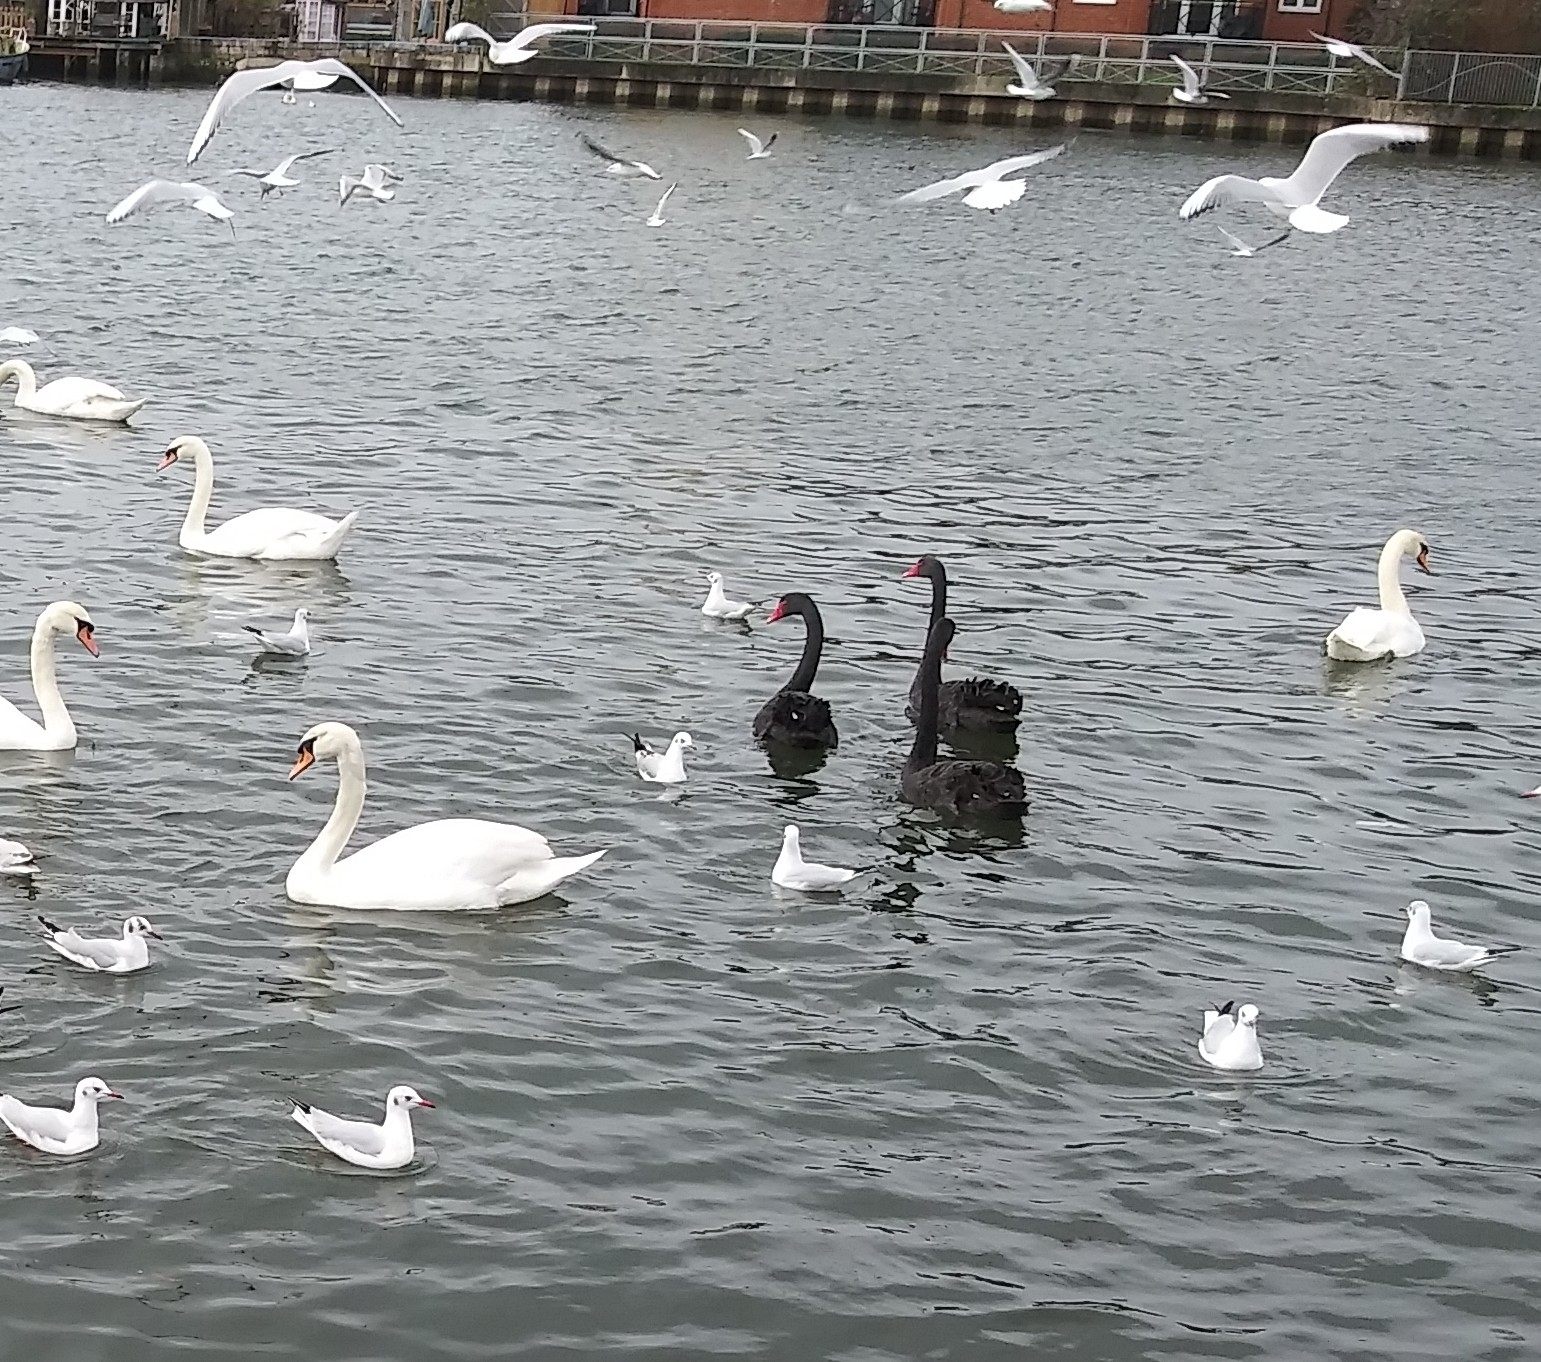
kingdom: Animalia
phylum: Chordata
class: Aves
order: Anseriformes
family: Anatidae
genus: Cygnus
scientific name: Cygnus atratus
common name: Black swan
